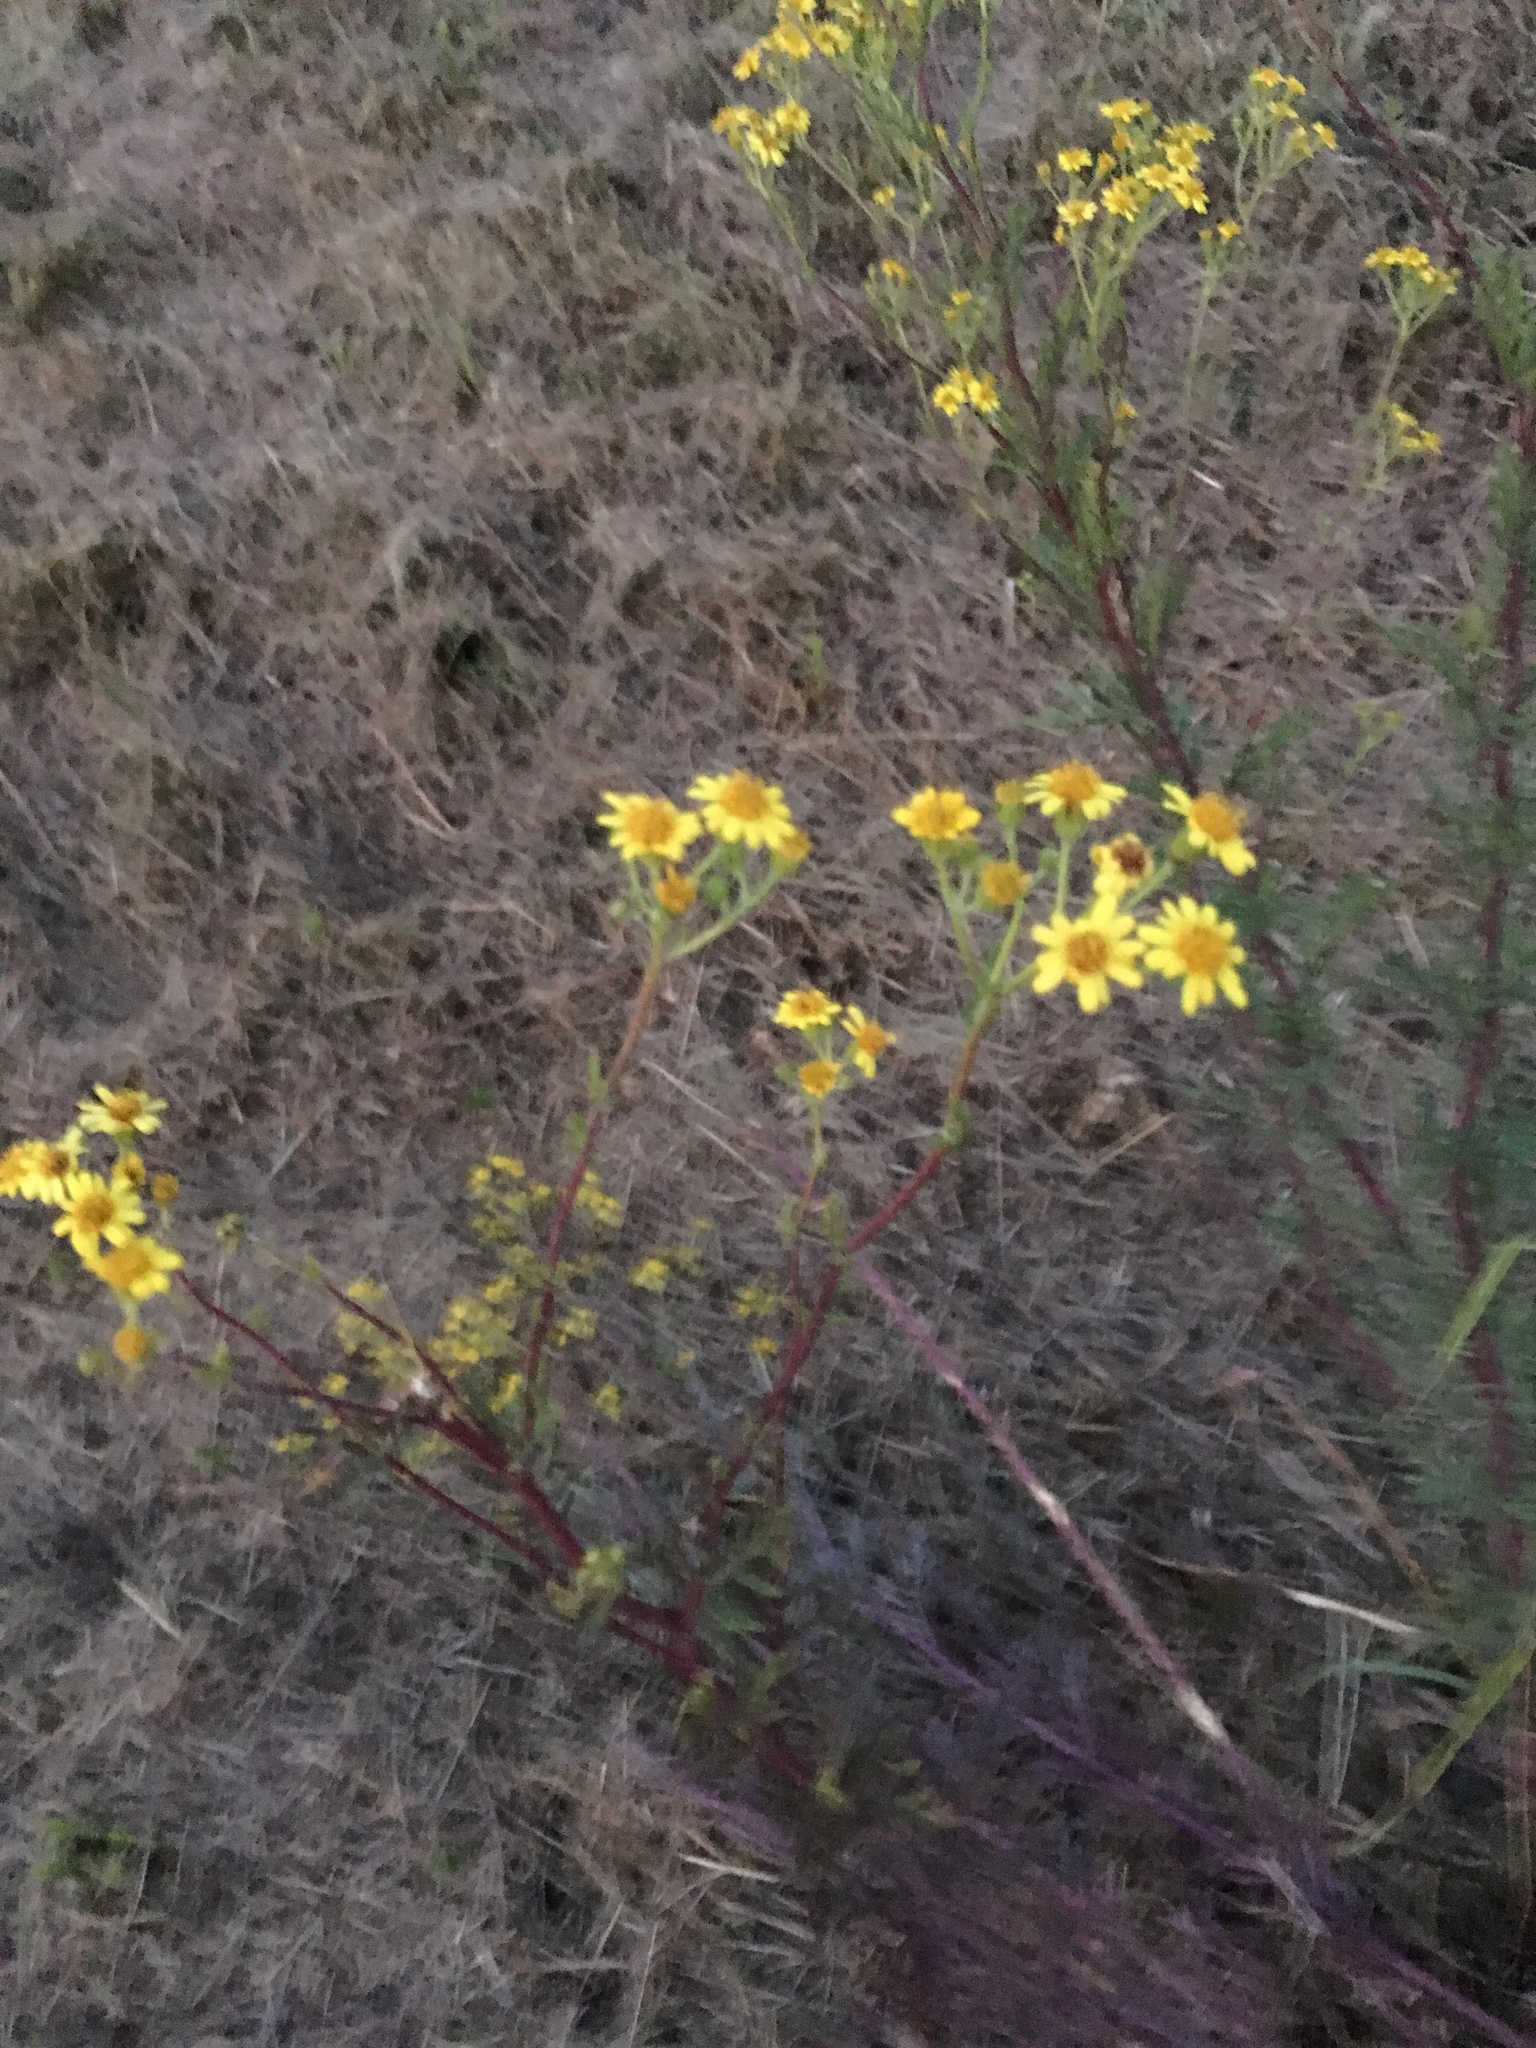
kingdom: Plantae
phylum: Tracheophyta
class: Magnoliopsida
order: Asterales
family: Asteraceae
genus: Jacobaea
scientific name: Jacobaea vulgaris
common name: Stinking willie
